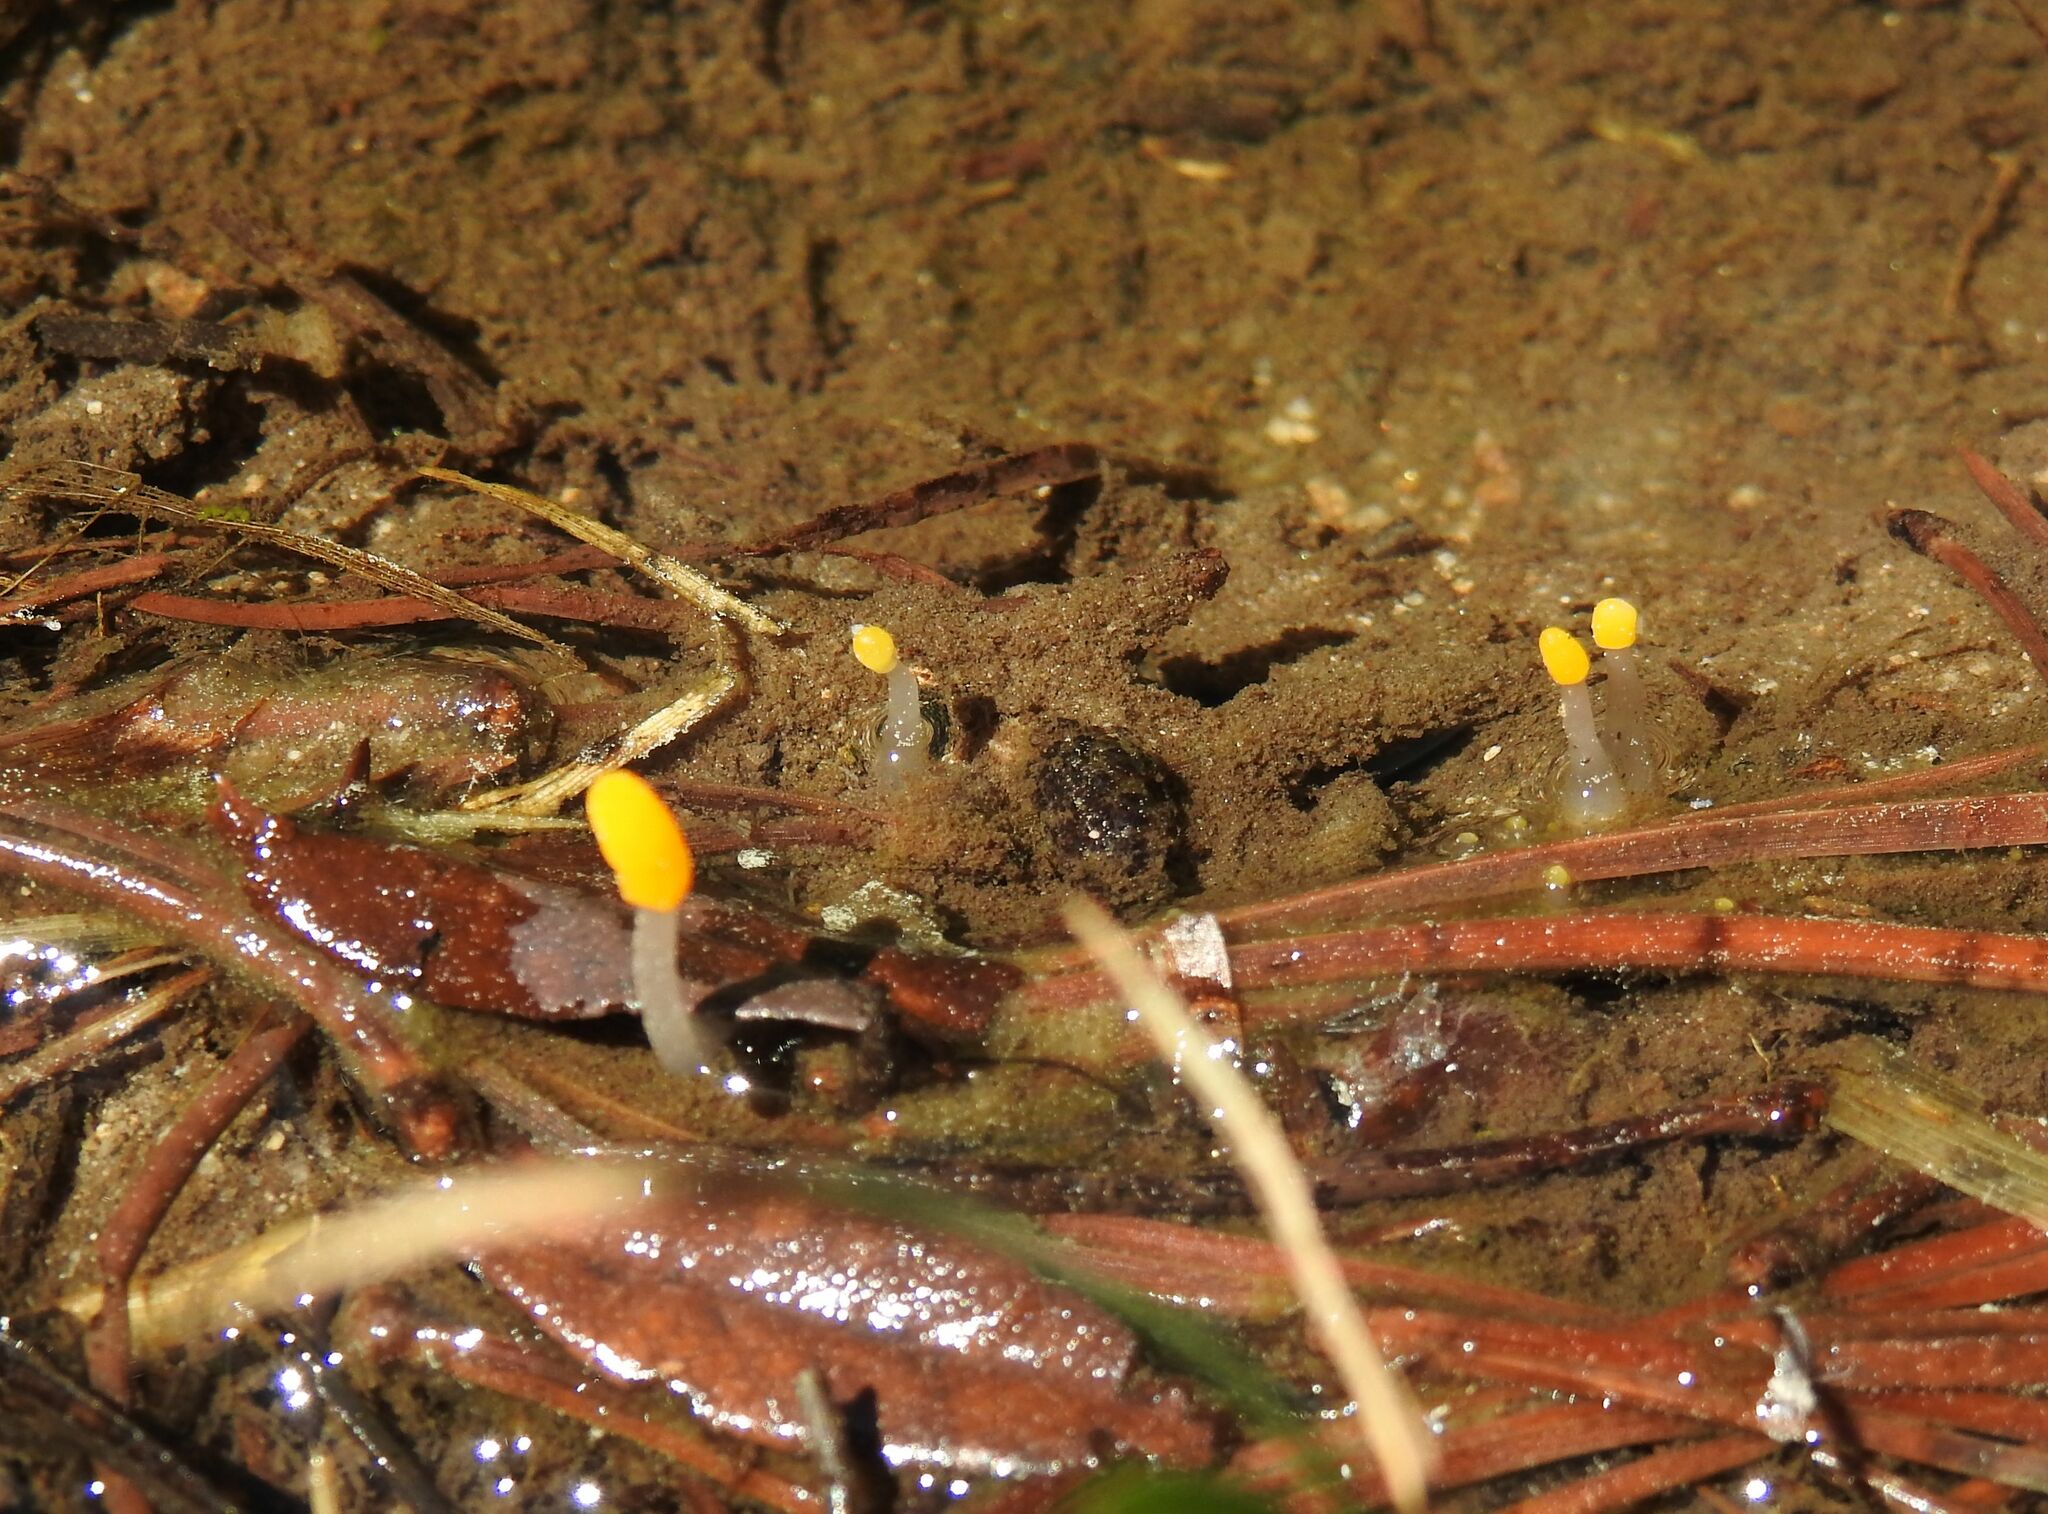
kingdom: Fungi
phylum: Ascomycota
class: Leotiomycetes
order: Helotiales
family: Cenangiaceae
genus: Mitrula
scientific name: Mitrula paludosa
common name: Bog beacon
